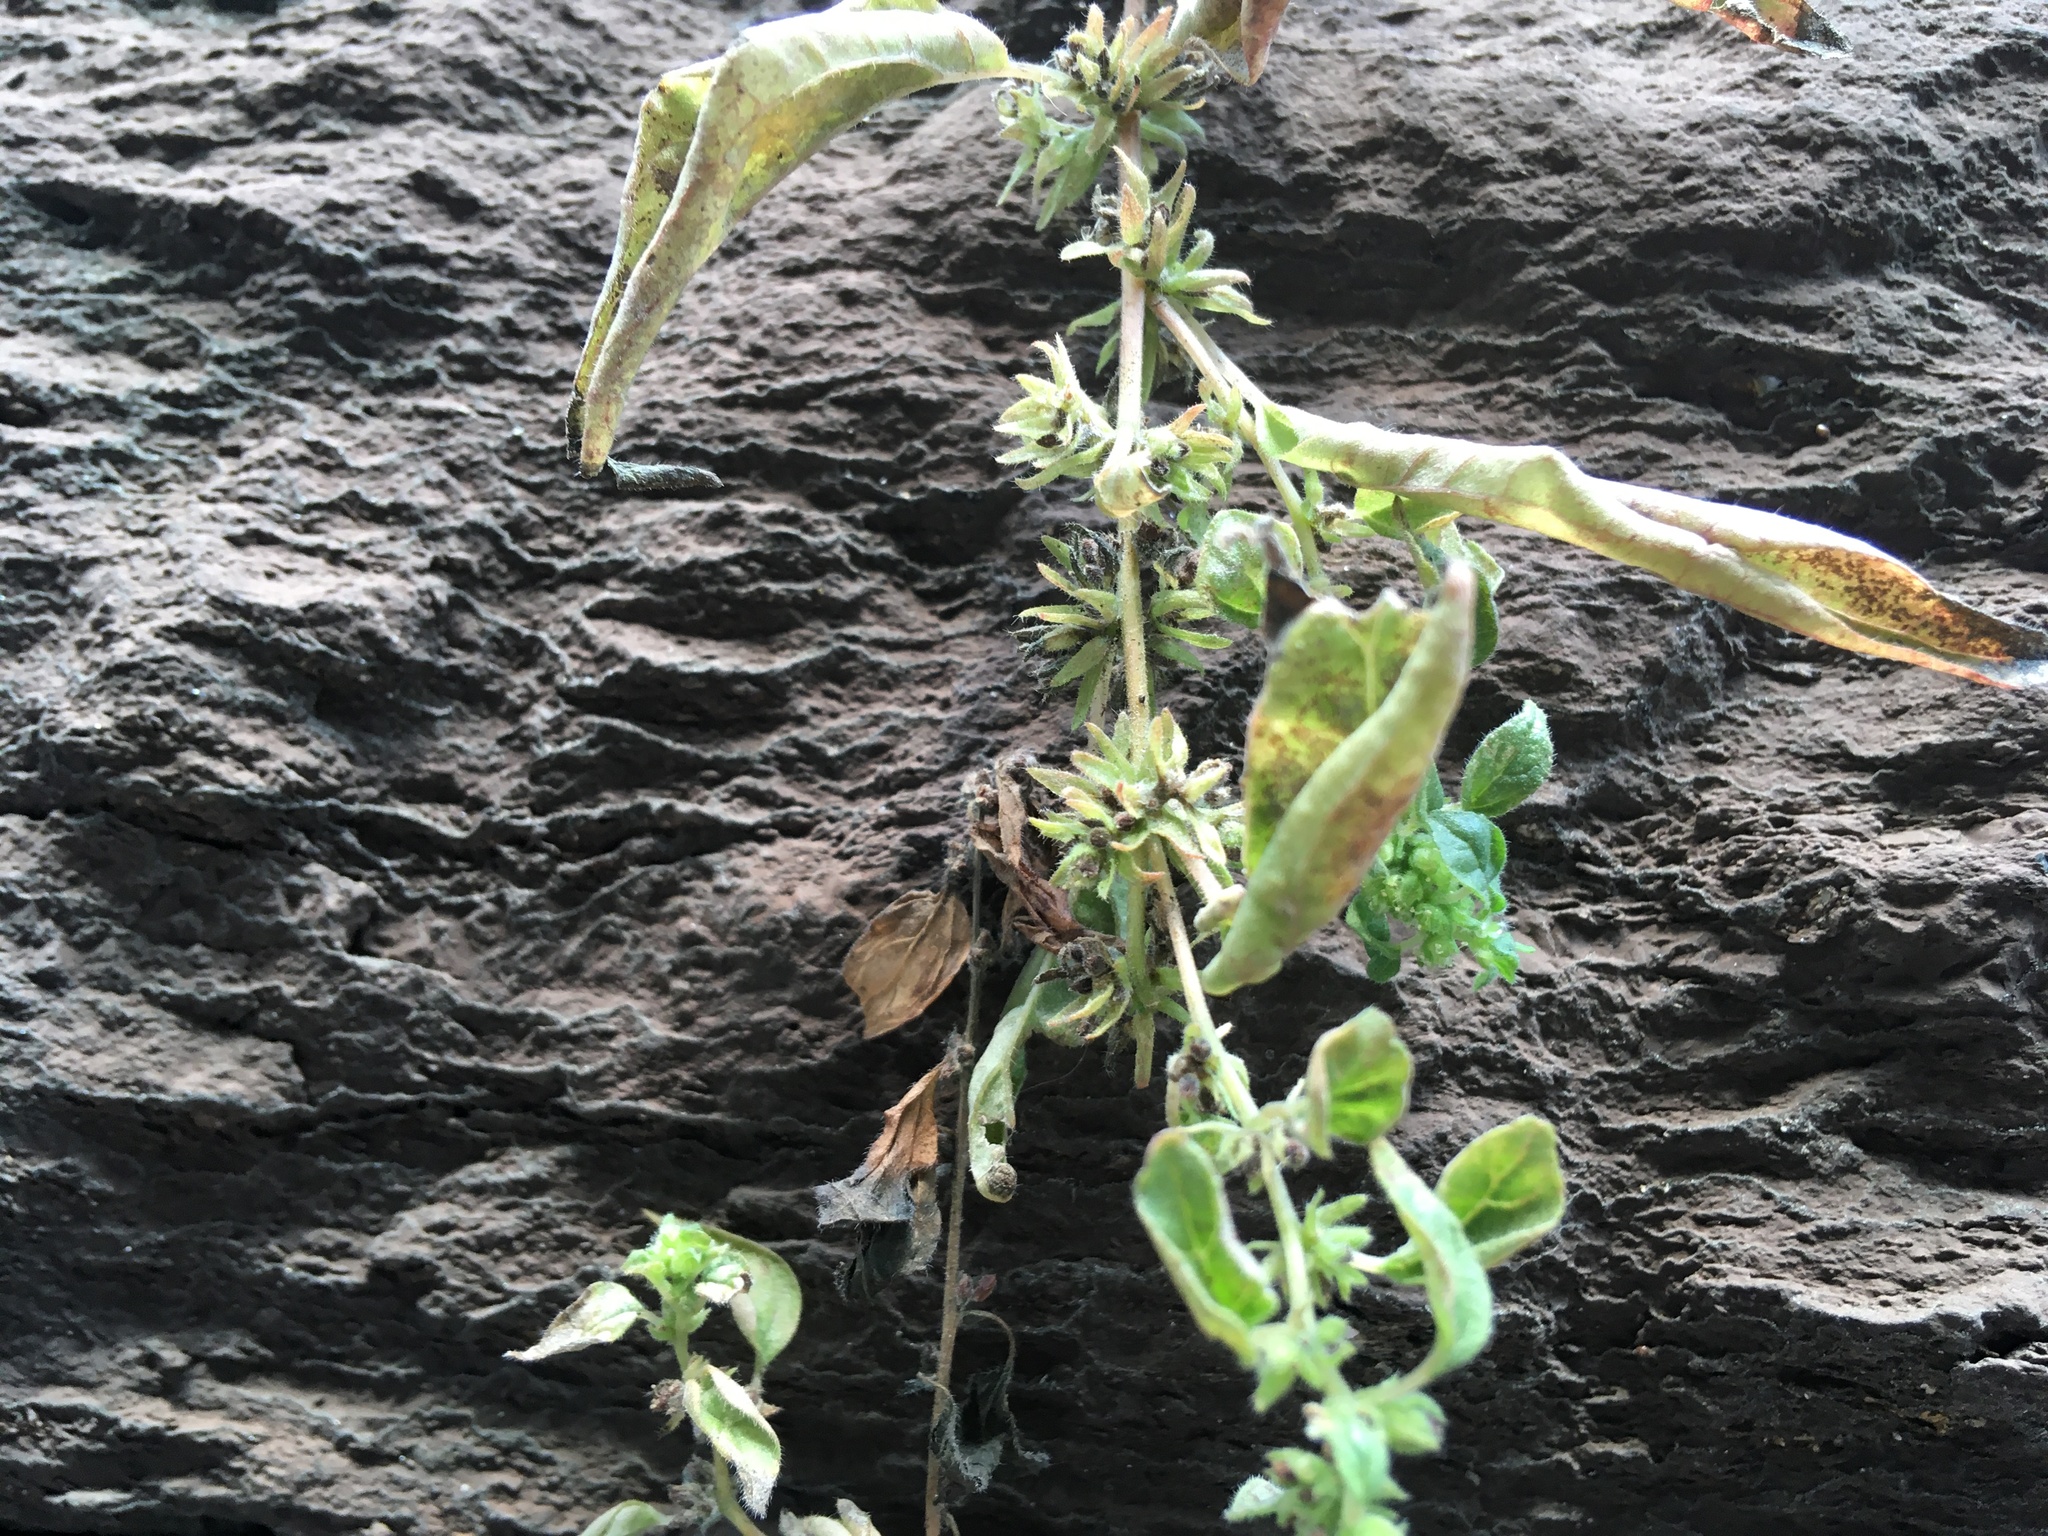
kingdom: Plantae
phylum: Tracheophyta
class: Magnoliopsida
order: Rosales
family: Urticaceae
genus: Parietaria
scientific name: Parietaria pensylvanica
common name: Pennsylvania pellitory
